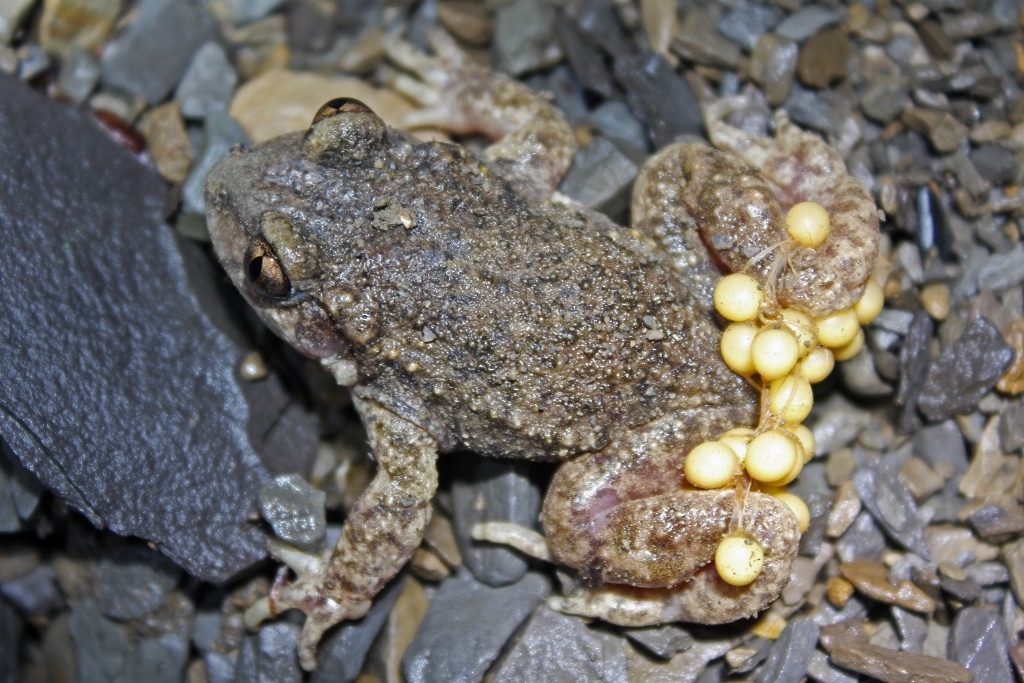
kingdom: Animalia
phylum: Chordata
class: Amphibia
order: Anura
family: Alytidae
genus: Alytes
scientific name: Alytes obstetricans
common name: Midwife toad
